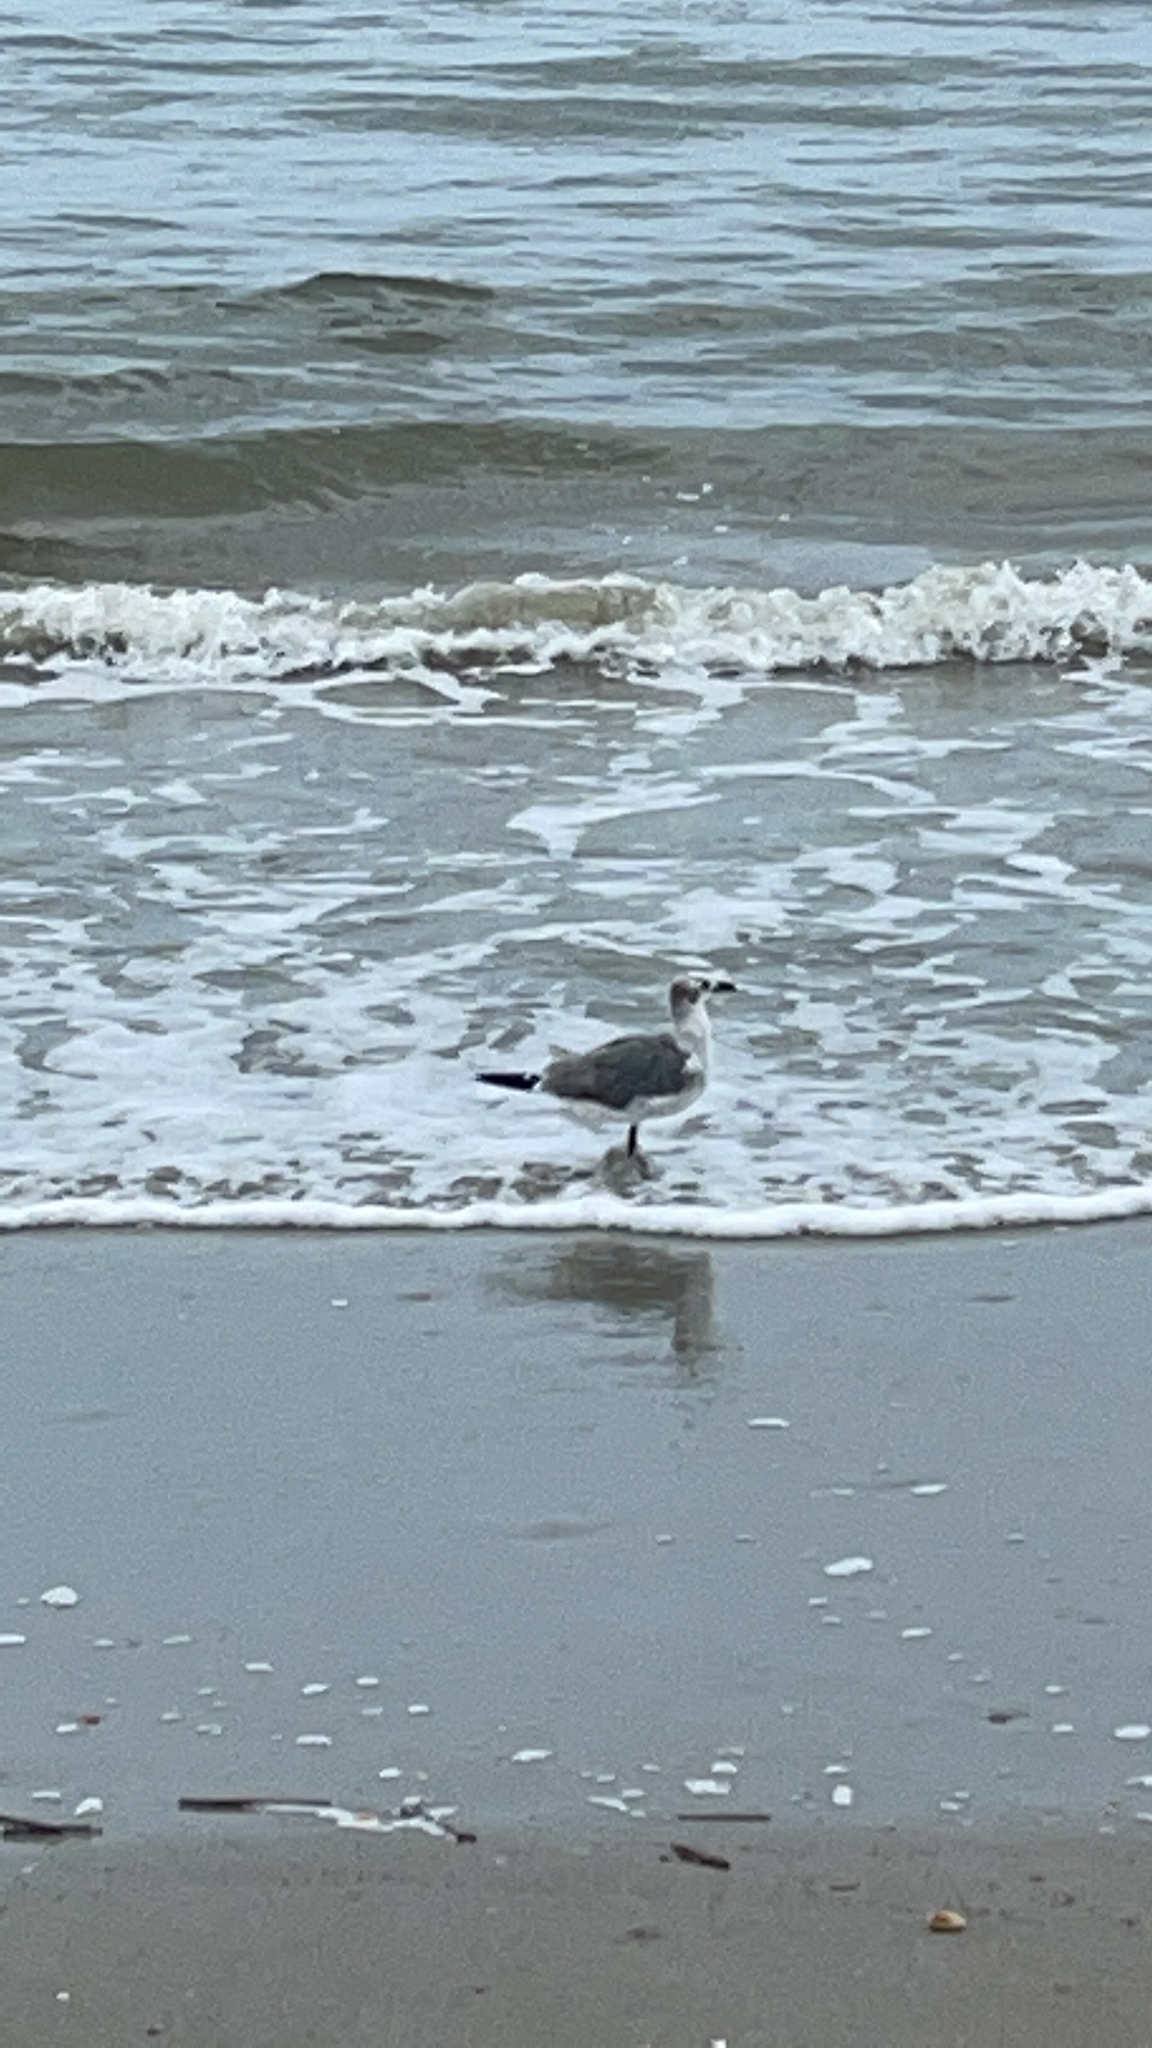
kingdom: Animalia
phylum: Chordata
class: Aves
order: Charadriiformes
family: Laridae
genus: Leucophaeus
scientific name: Leucophaeus atricilla
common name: Laughing gull
